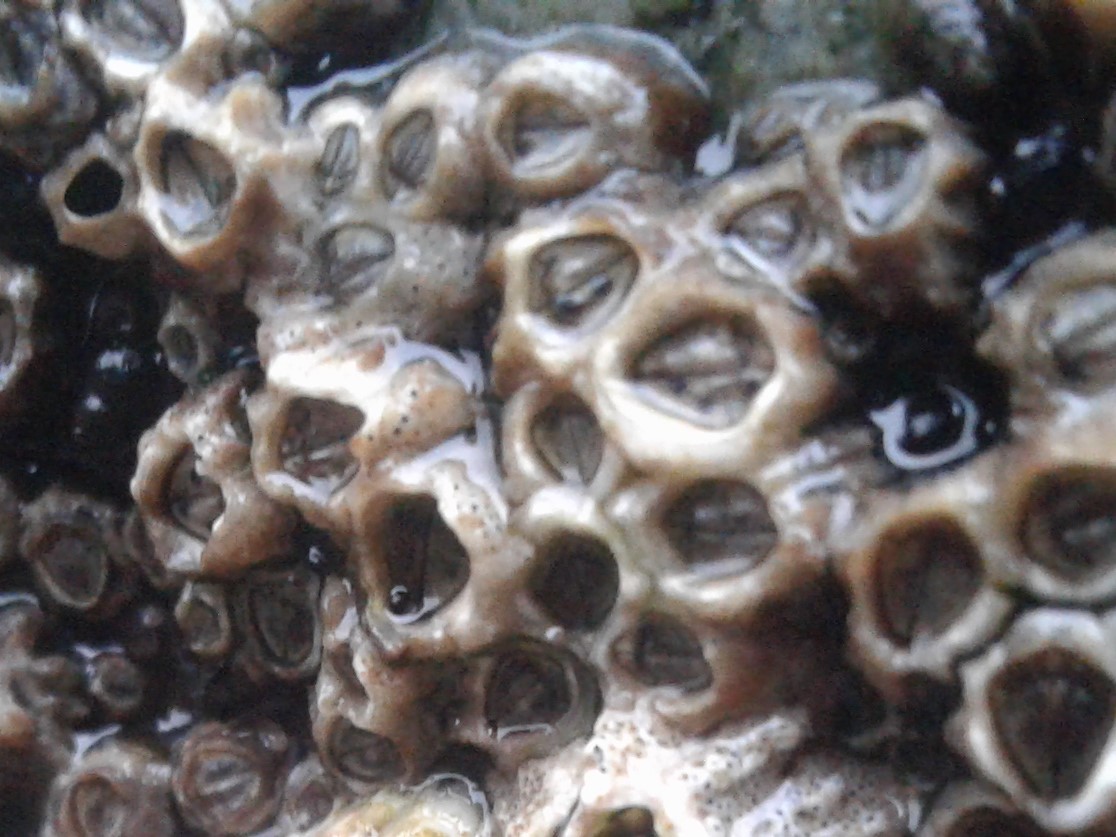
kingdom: Animalia
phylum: Arthropoda
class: Maxillopoda
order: Sessilia
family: Chthamalidae
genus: Chamaesipho
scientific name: Chamaesipho columna
